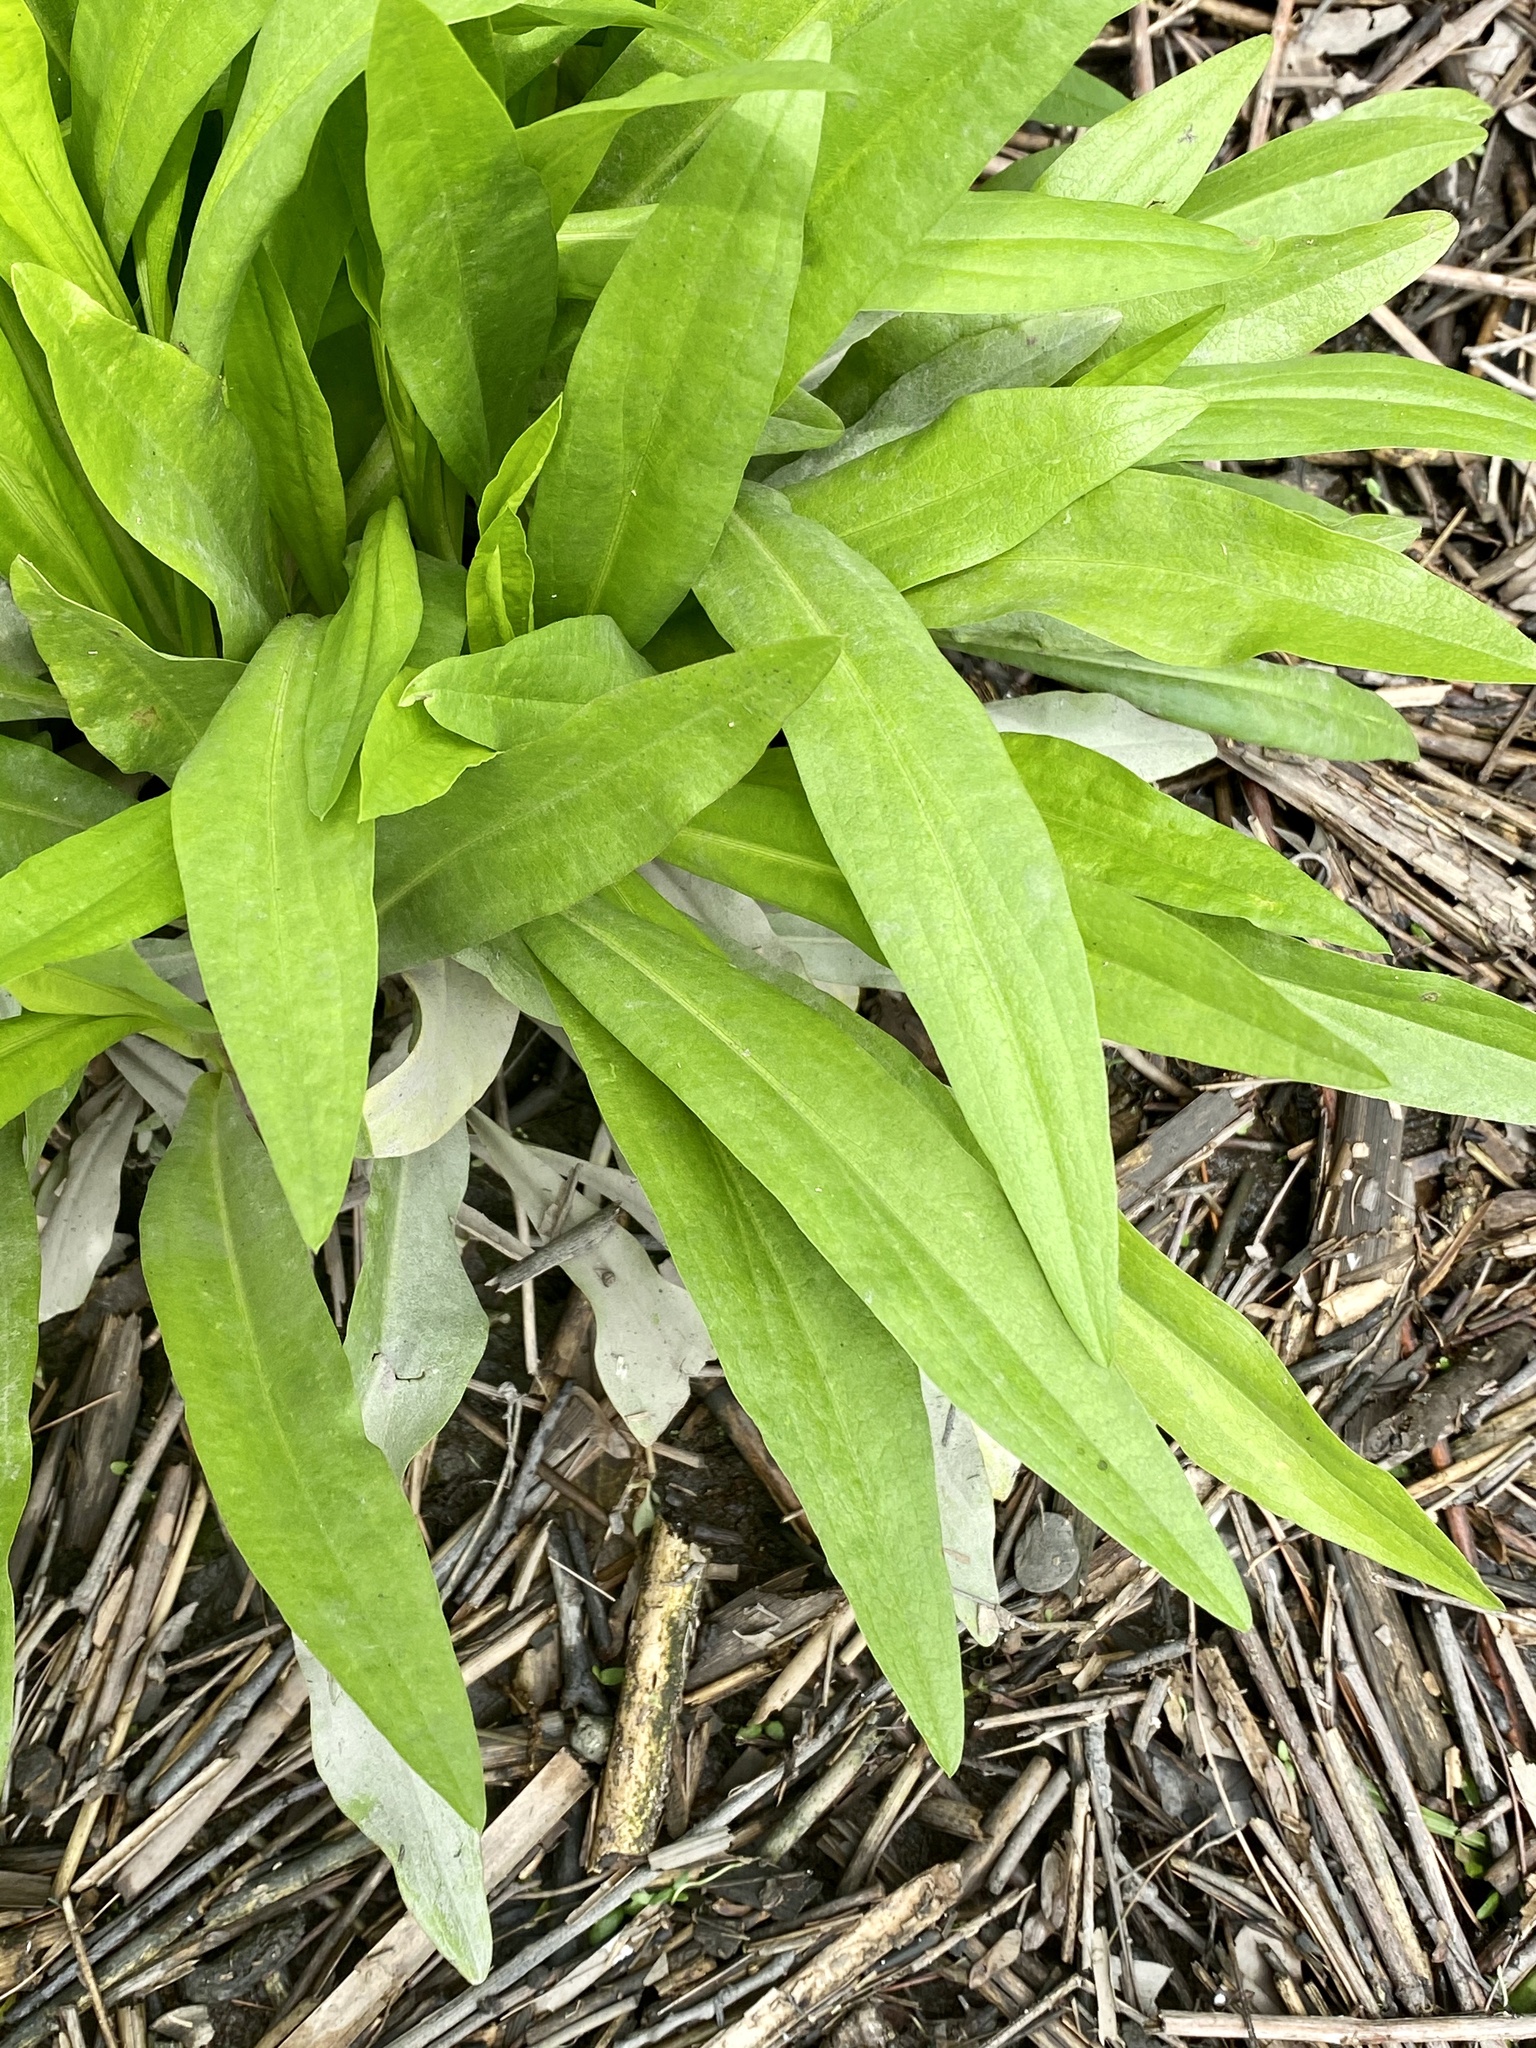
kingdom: Plantae
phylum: Tracheophyta
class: Magnoliopsida
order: Asterales
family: Asteraceae
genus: Solidago
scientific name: Solidago sempervirens
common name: Salt-marsh goldenrod
